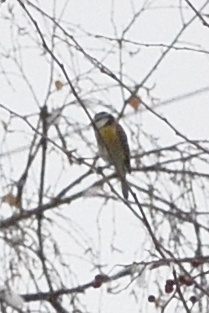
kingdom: Animalia
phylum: Chordata
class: Aves
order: Passeriformes
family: Paridae
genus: Cyanistes
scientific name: Cyanistes caeruleus
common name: Eurasian blue tit
